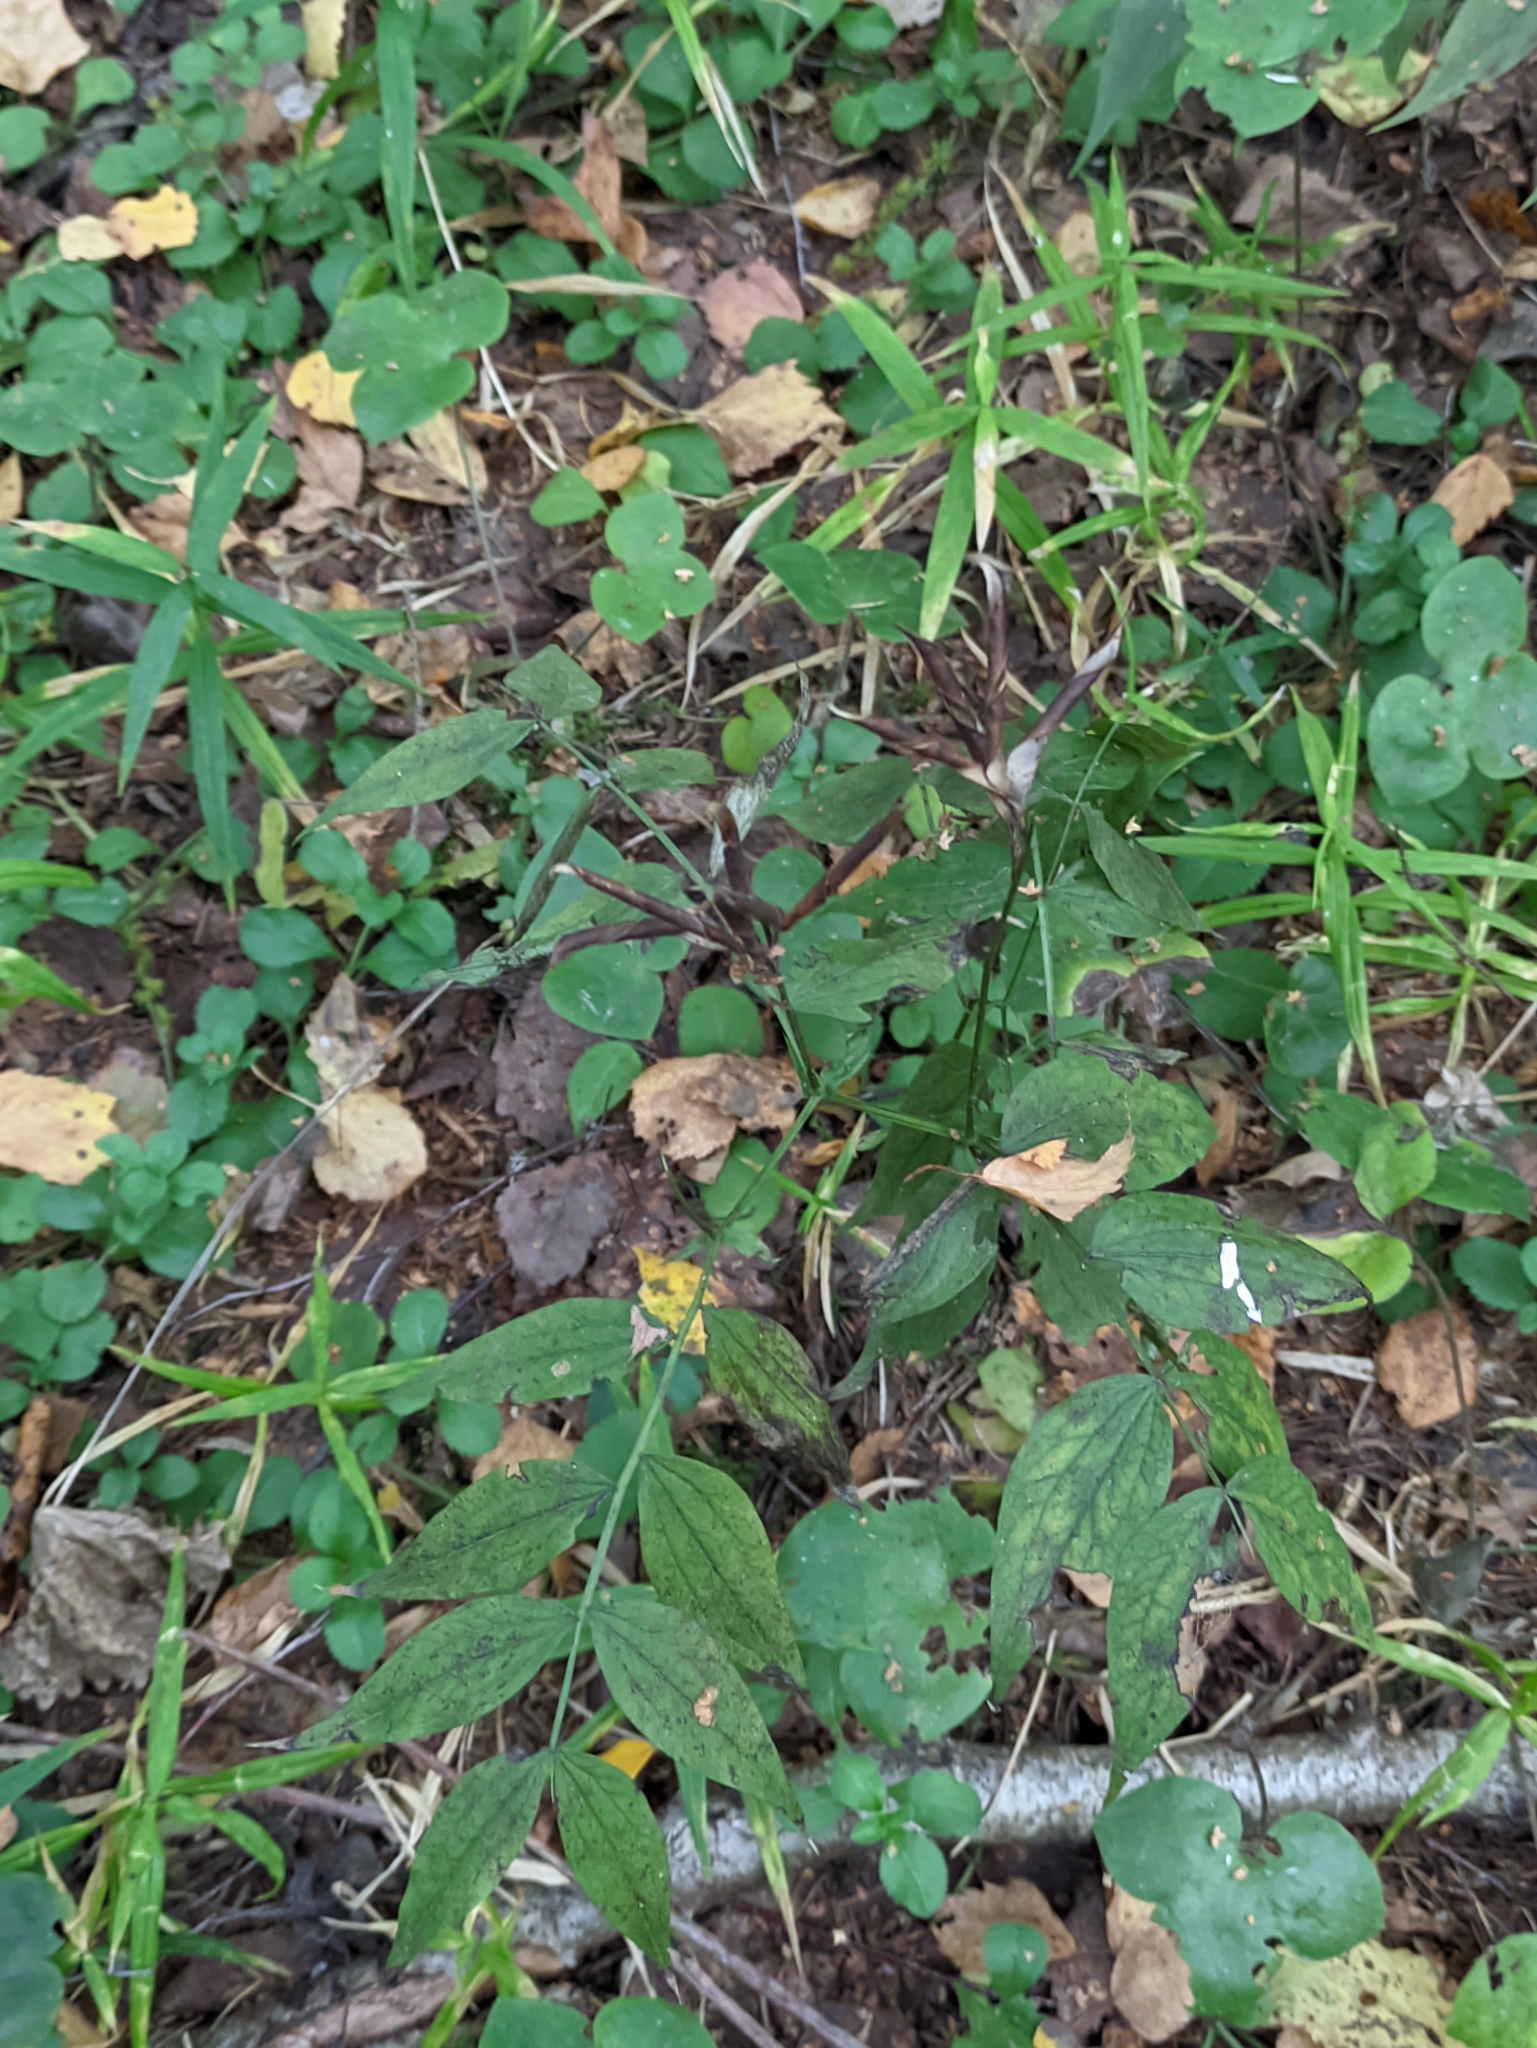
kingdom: Plantae
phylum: Tracheophyta
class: Magnoliopsida
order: Fabales
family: Fabaceae
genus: Lathyrus
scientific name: Lathyrus vernus
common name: Spring pea
